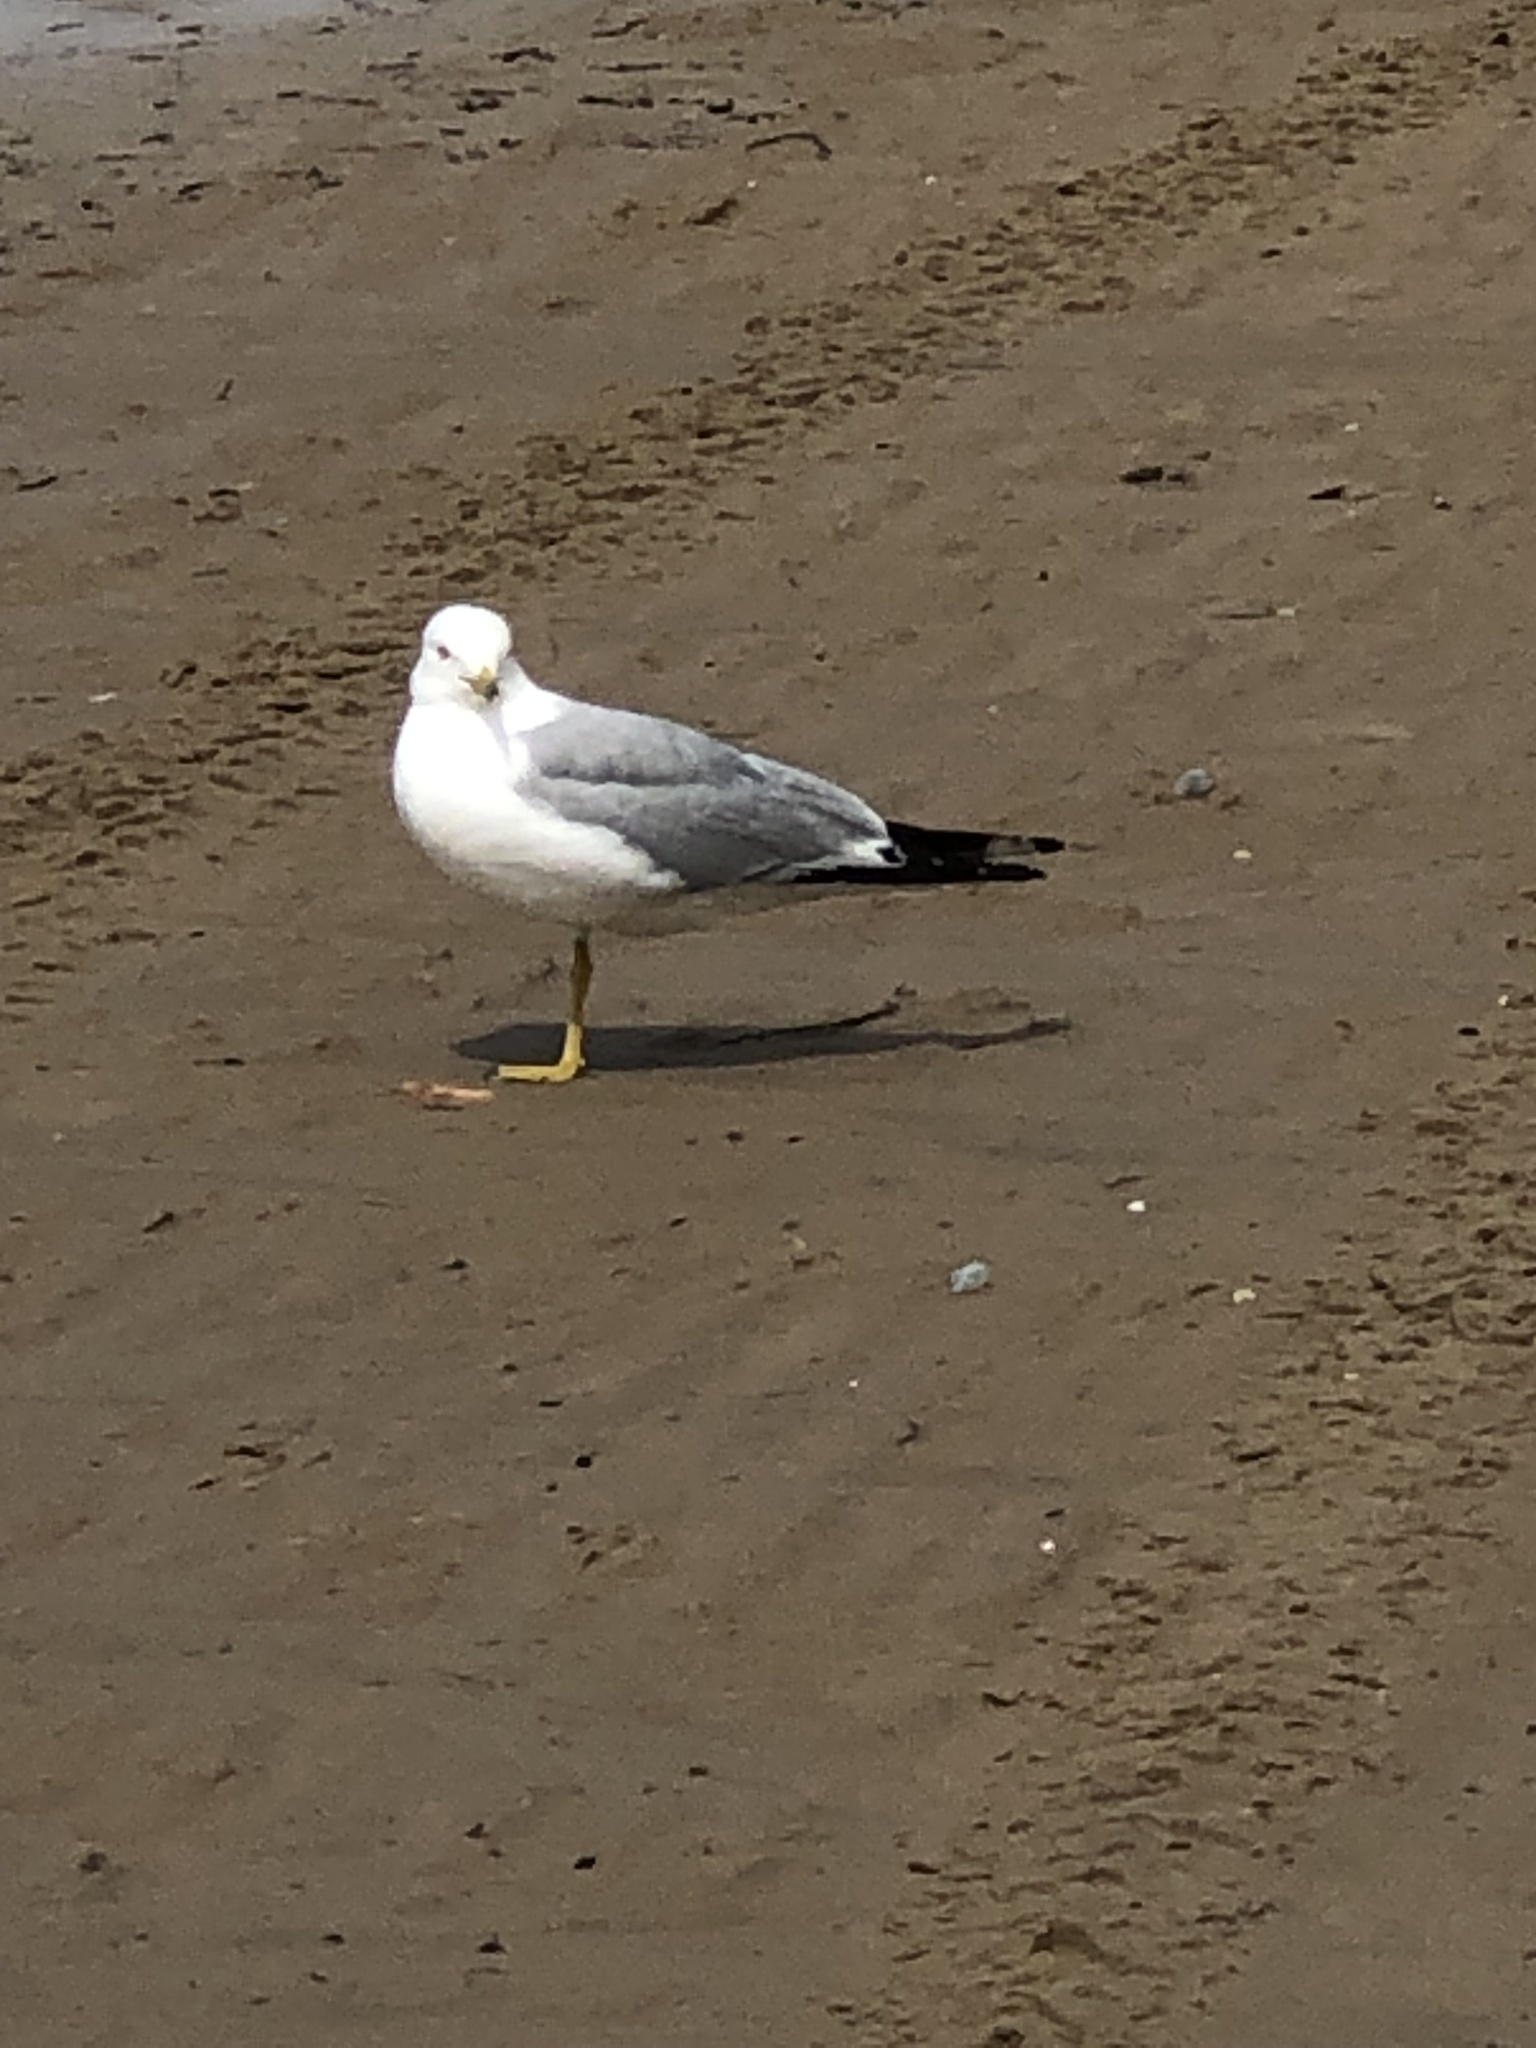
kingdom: Animalia
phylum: Chordata
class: Aves
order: Charadriiformes
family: Laridae
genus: Larus
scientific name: Larus delawarensis
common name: Ring-billed gull
